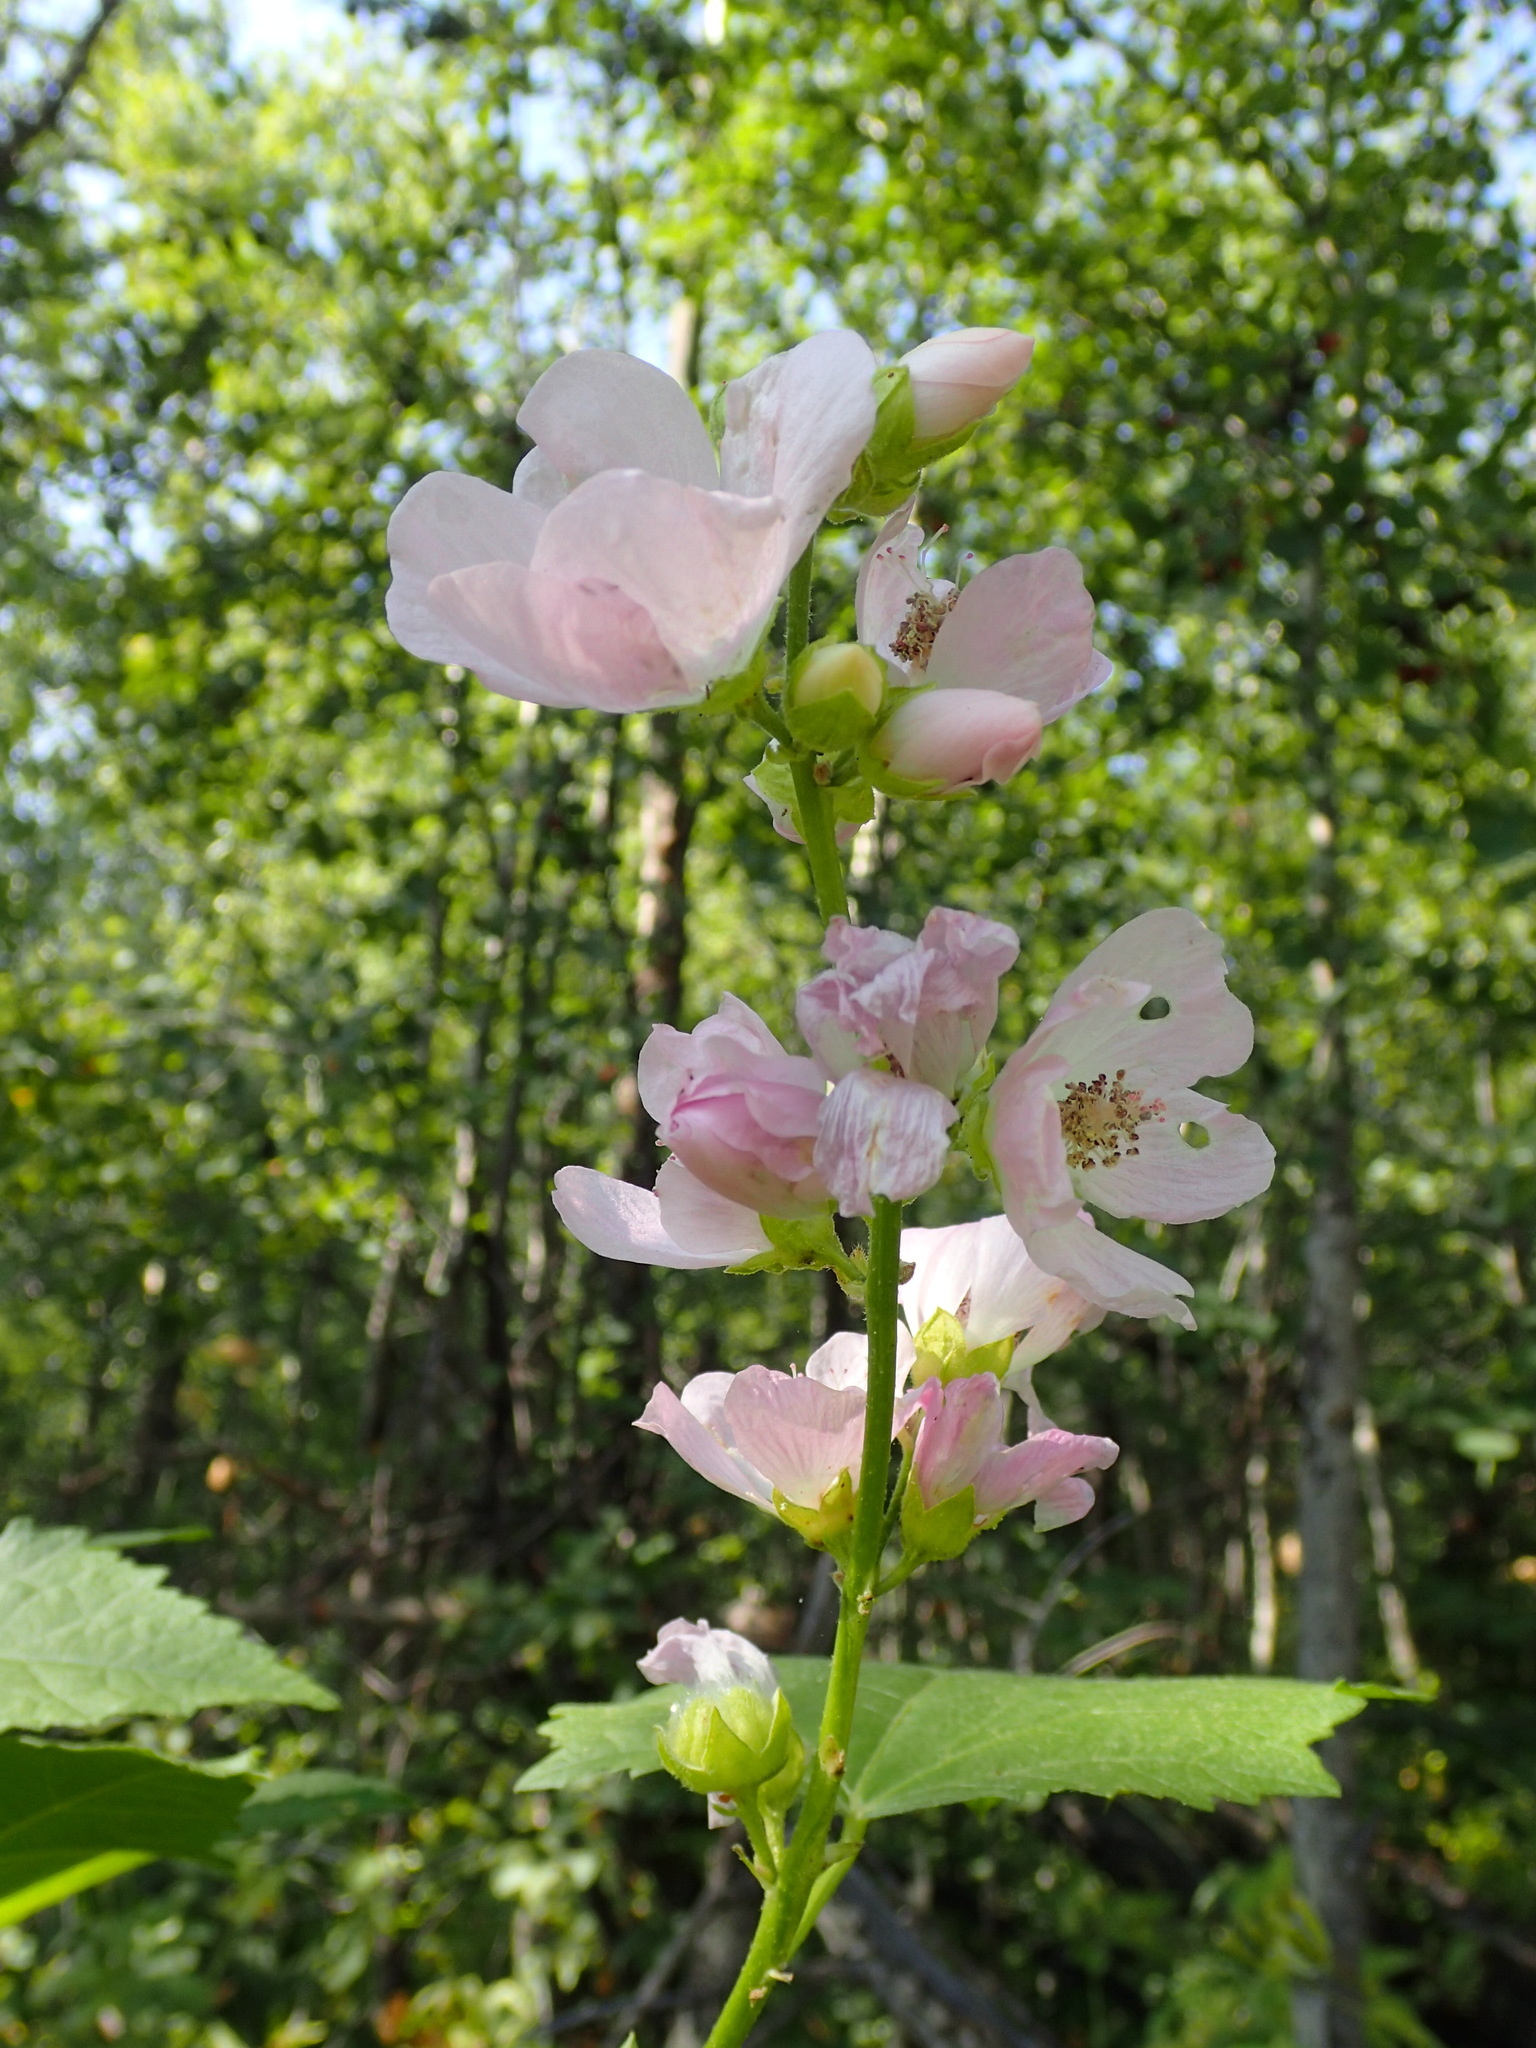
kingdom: Plantae
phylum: Tracheophyta
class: Magnoliopsida
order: Malvales
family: Malvaceae
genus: Iliamna
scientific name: Iliamna rivularis
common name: Wild hollyhock
